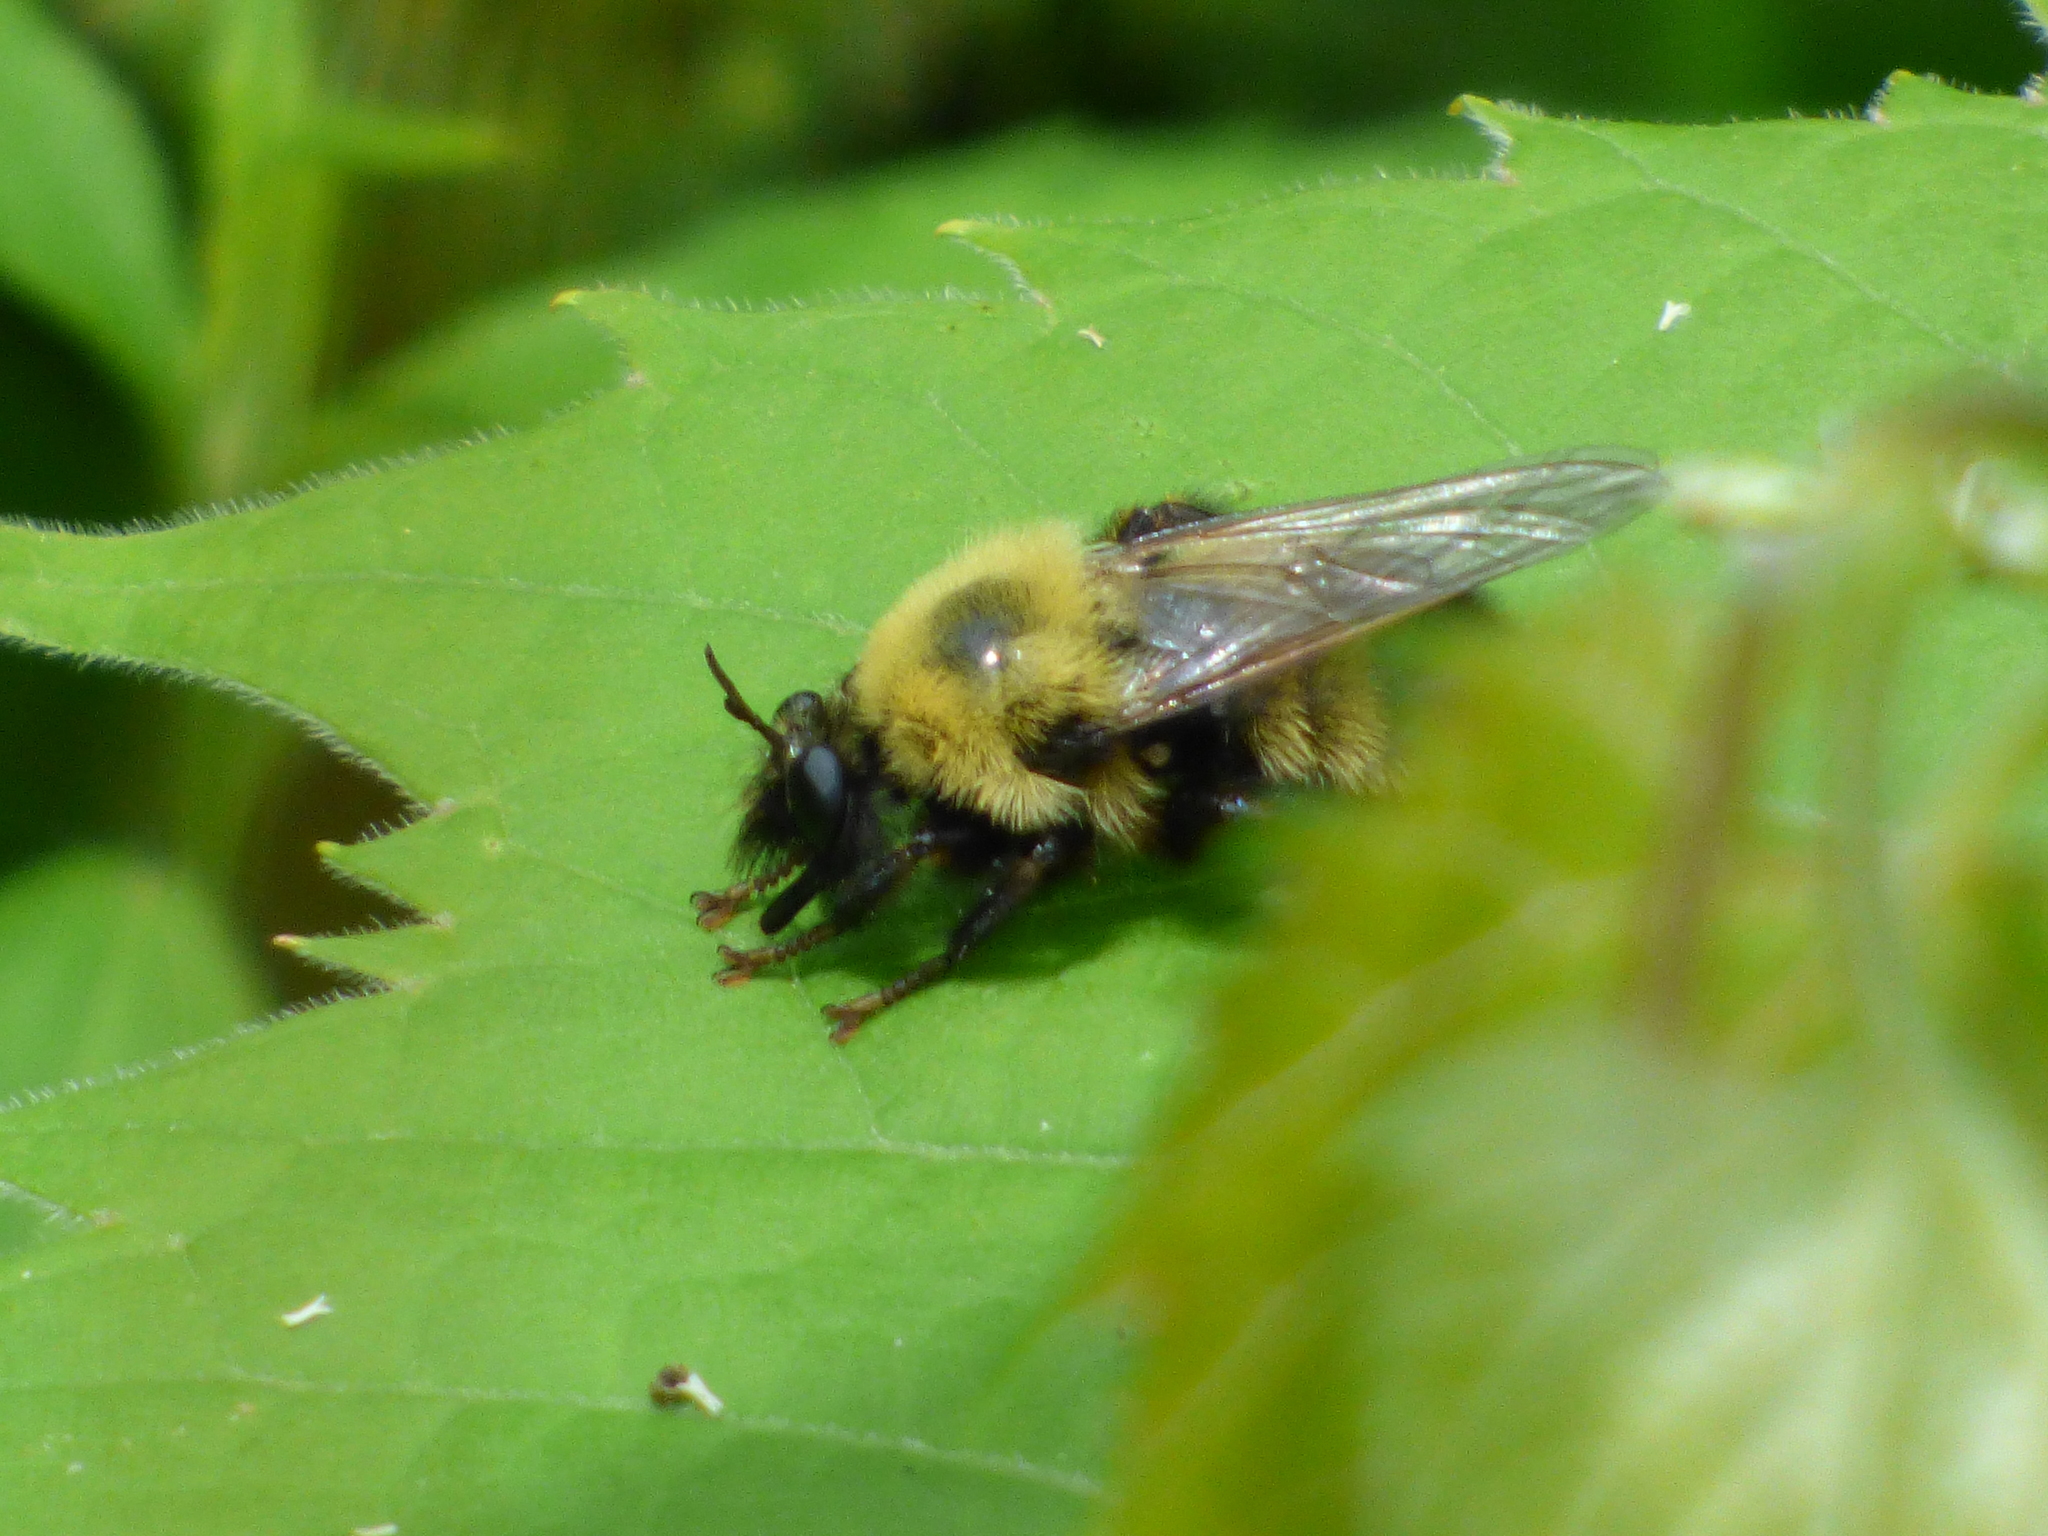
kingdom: Animalia
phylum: Arthropoda
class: Insecta
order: Diptera
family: Asilidae
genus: Laphria
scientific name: Laphria thoracica
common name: Bumble bee mimic robber fly
